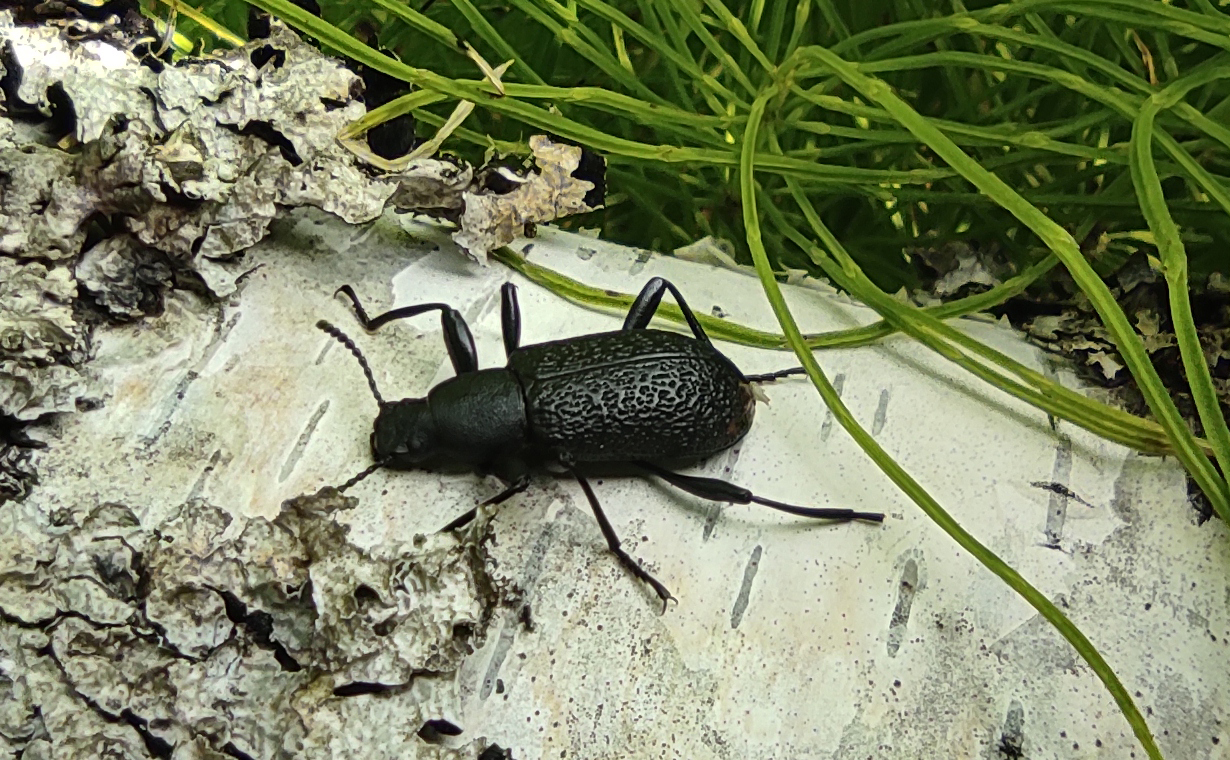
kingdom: Animalia
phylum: Arthropoda
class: Insecta
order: Coleoptera
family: Tenebrionidae
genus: Upis
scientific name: Upis ceramboides
